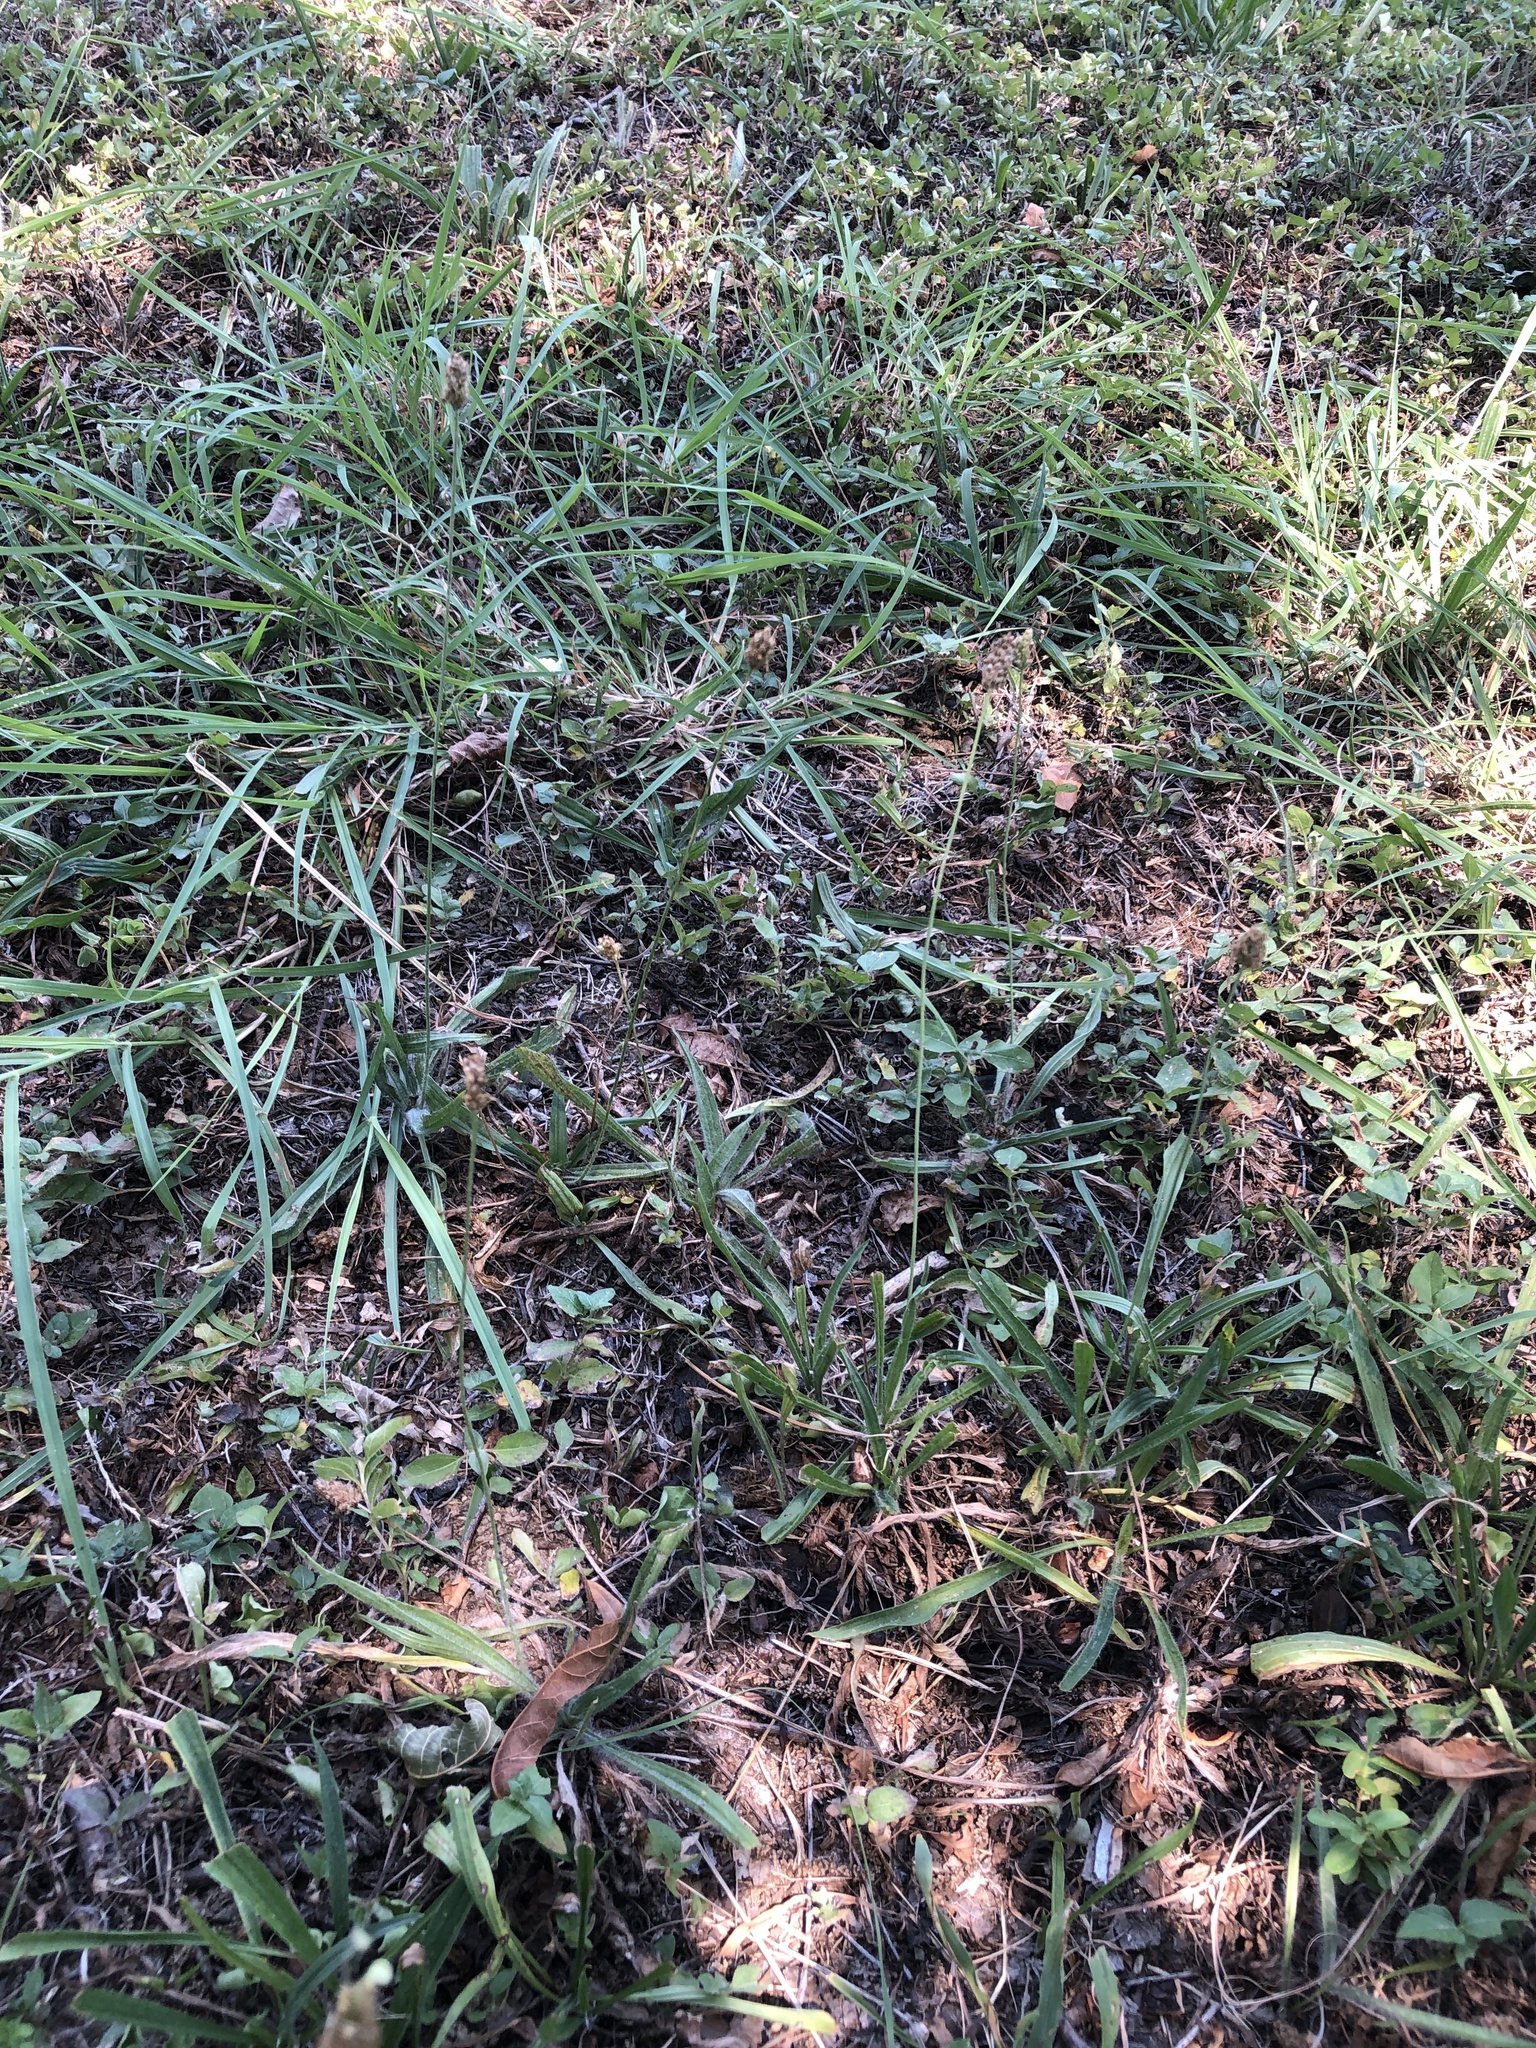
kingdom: Plantae
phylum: Tracheophyta
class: Magnoliopsida
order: Lamiales
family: Plantaginaceae
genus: Plantago
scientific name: Plantago lanceolata
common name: Ribwort plantain
